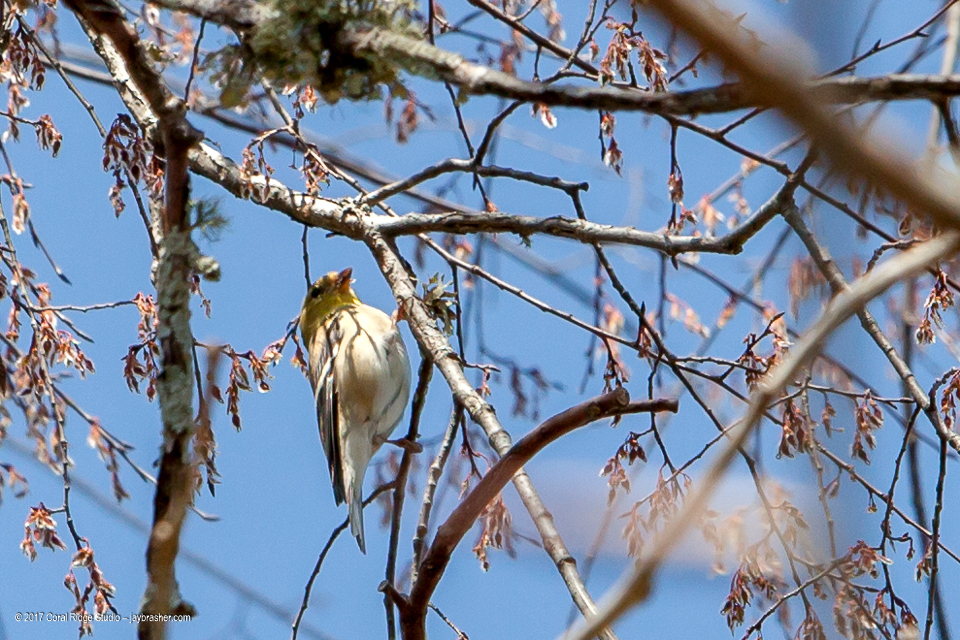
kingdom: Animalia
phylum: Chordata
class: Aves
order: Passeriformes
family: Fringillidae
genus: Spinus
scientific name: Spinus tristis
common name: American goldfinch
